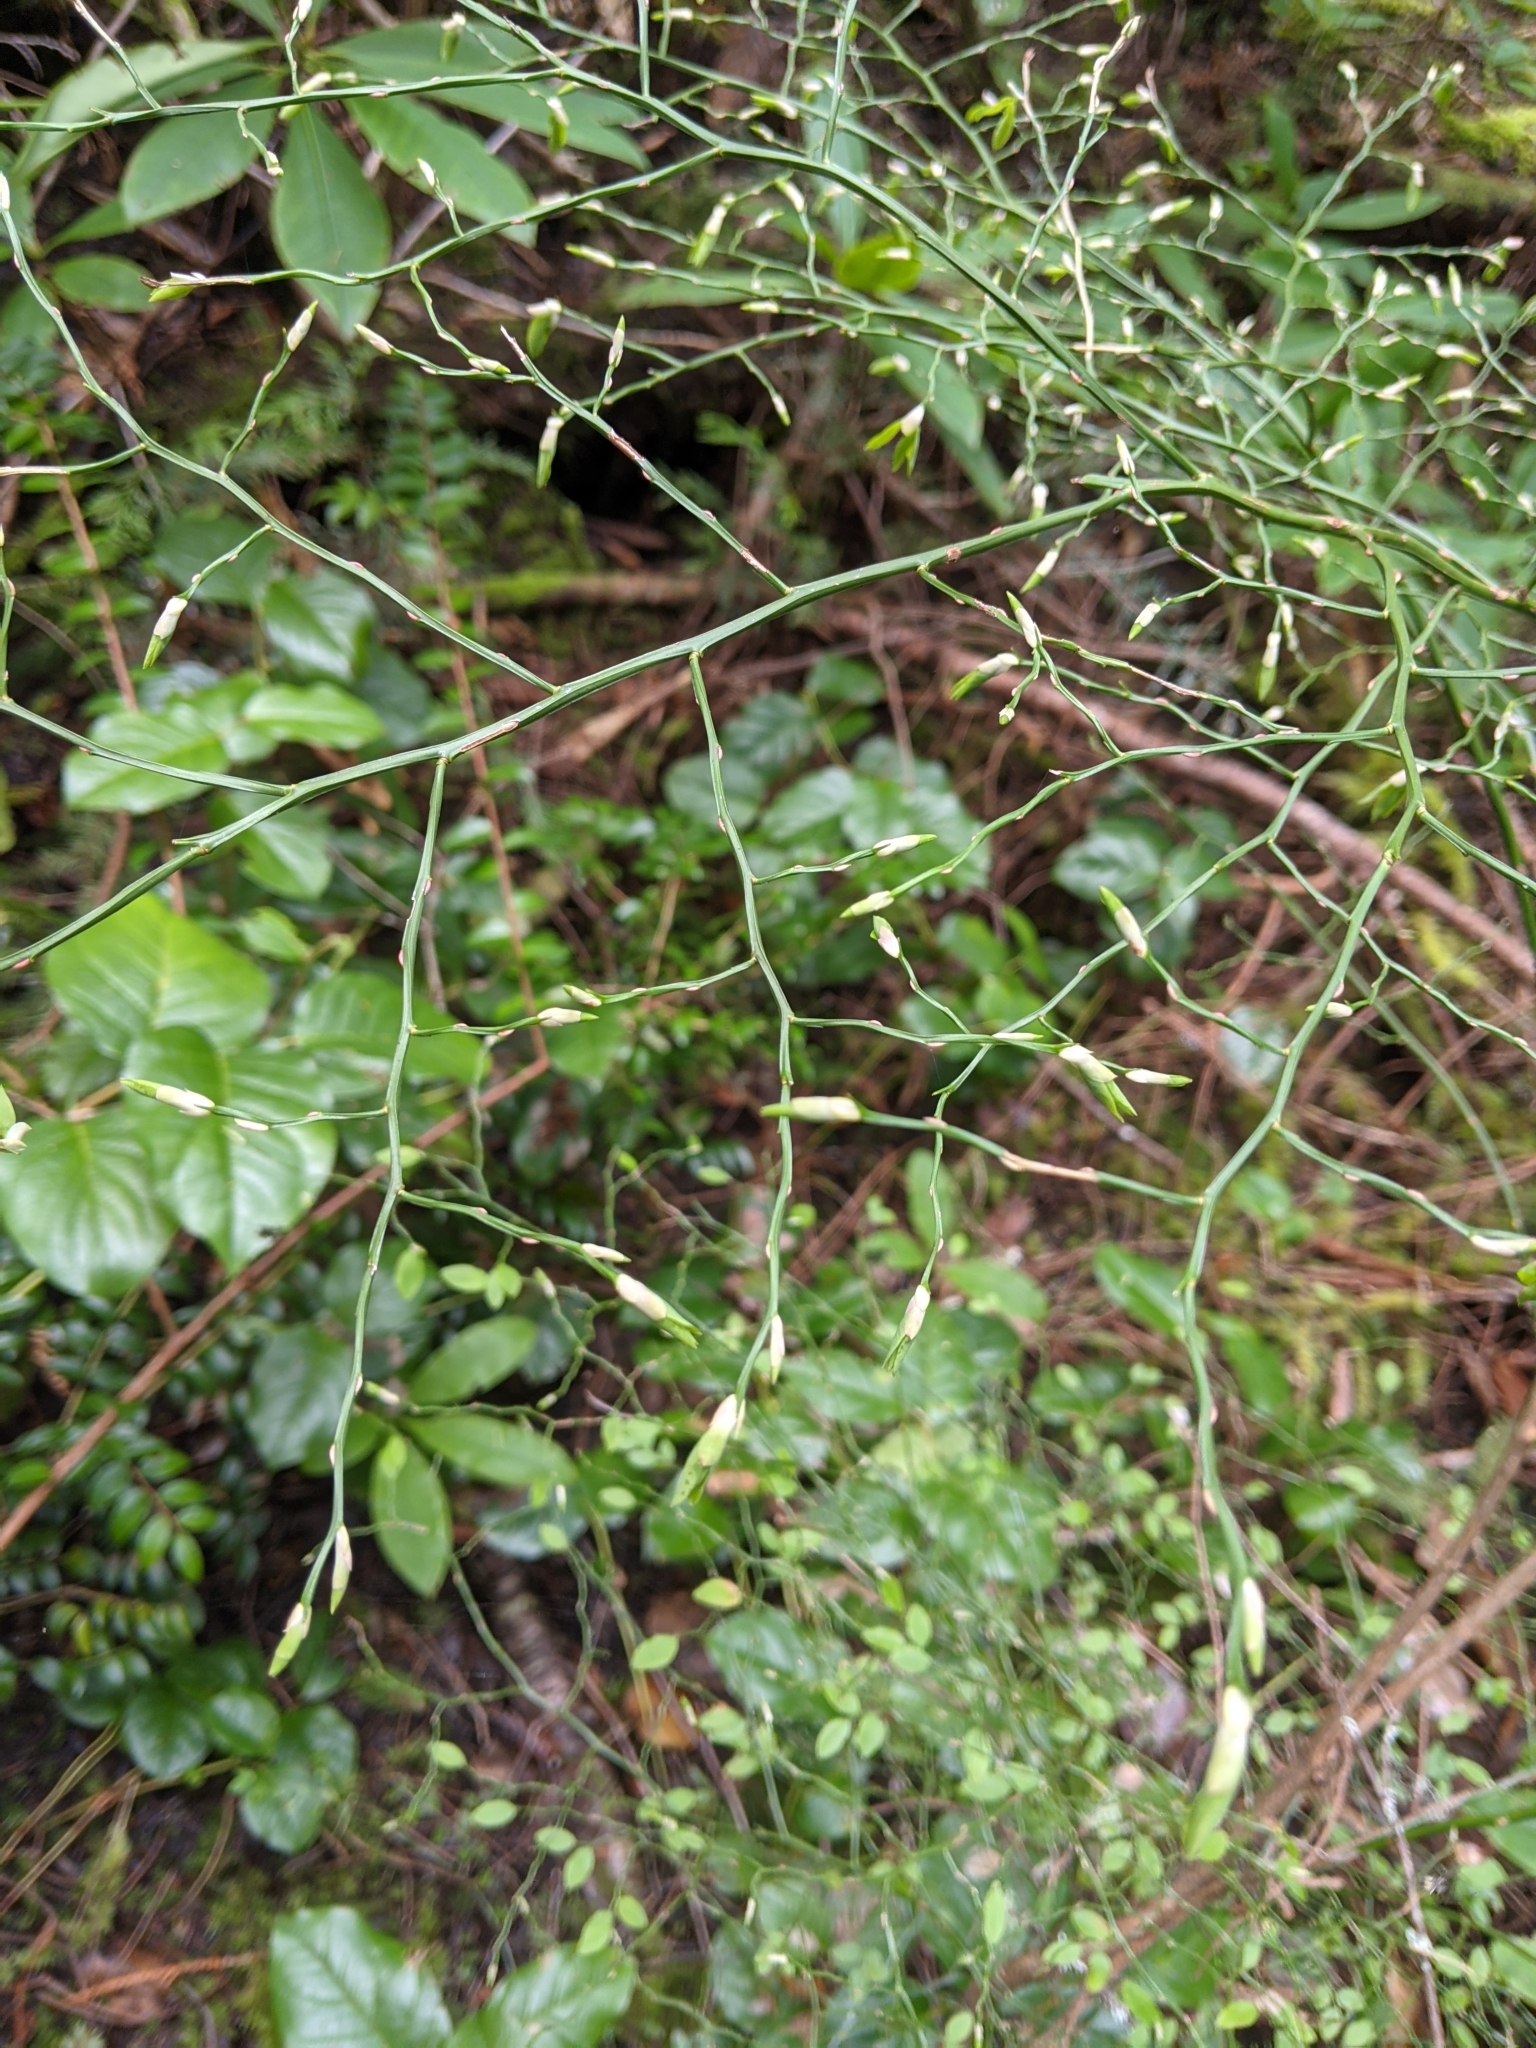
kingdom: Plantae
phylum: Tracheophyta
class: Magnoliopsida
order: Ericales
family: Ericaceae
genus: Vaccinium
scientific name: Vaccinium parvifolium
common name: Red-huckleberry
